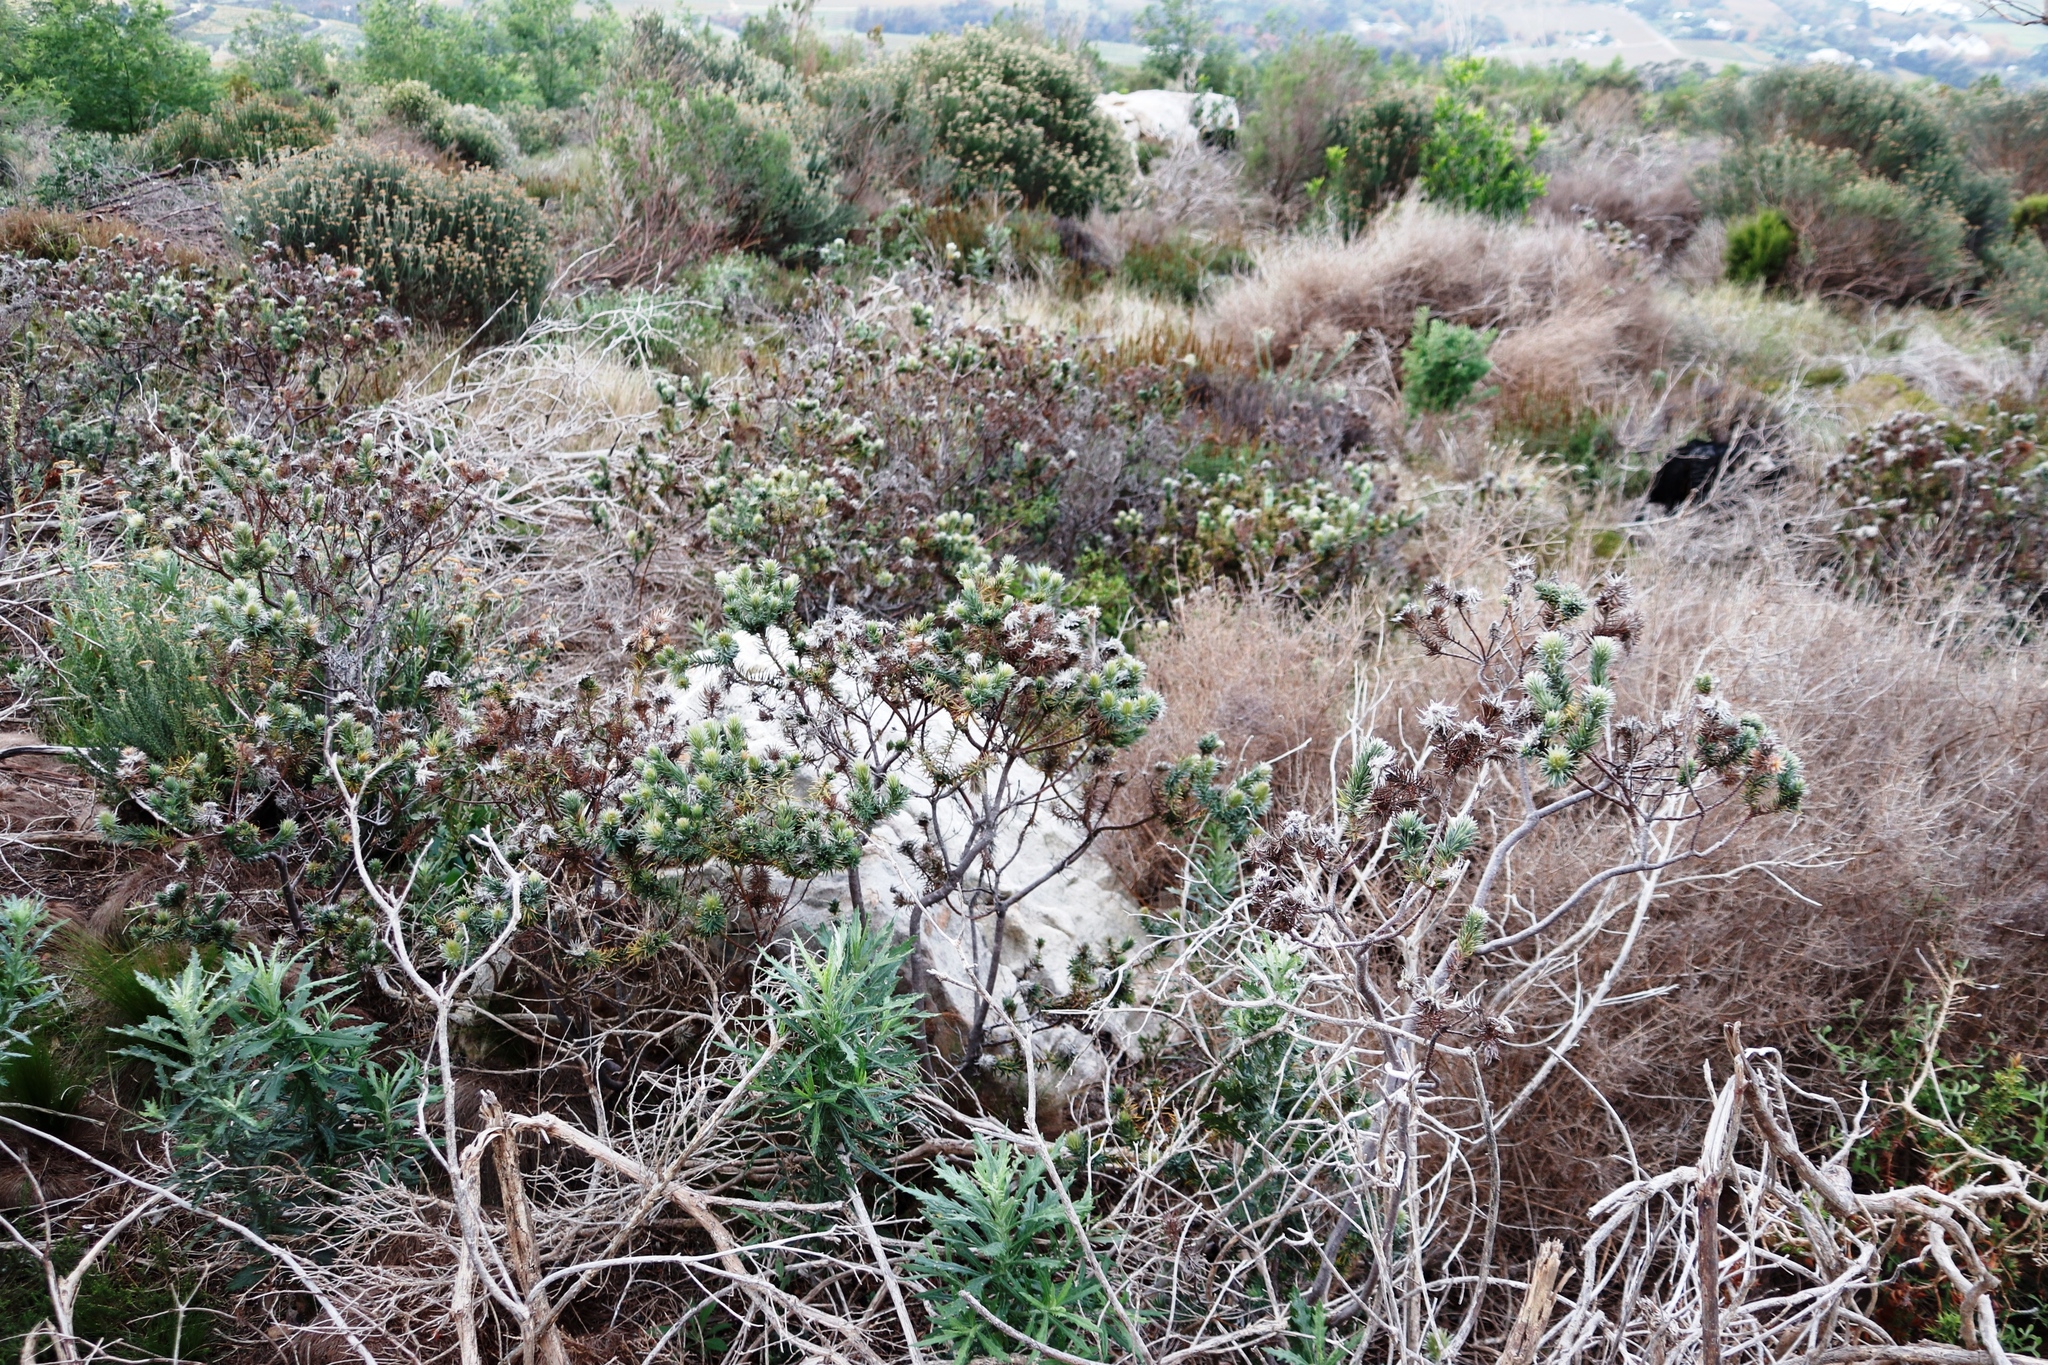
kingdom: Plantae
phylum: Tracheophyta
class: Magnoliopsida
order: Rosales
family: Rhamnaceae
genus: Phylica
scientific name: Phylica pubescens
